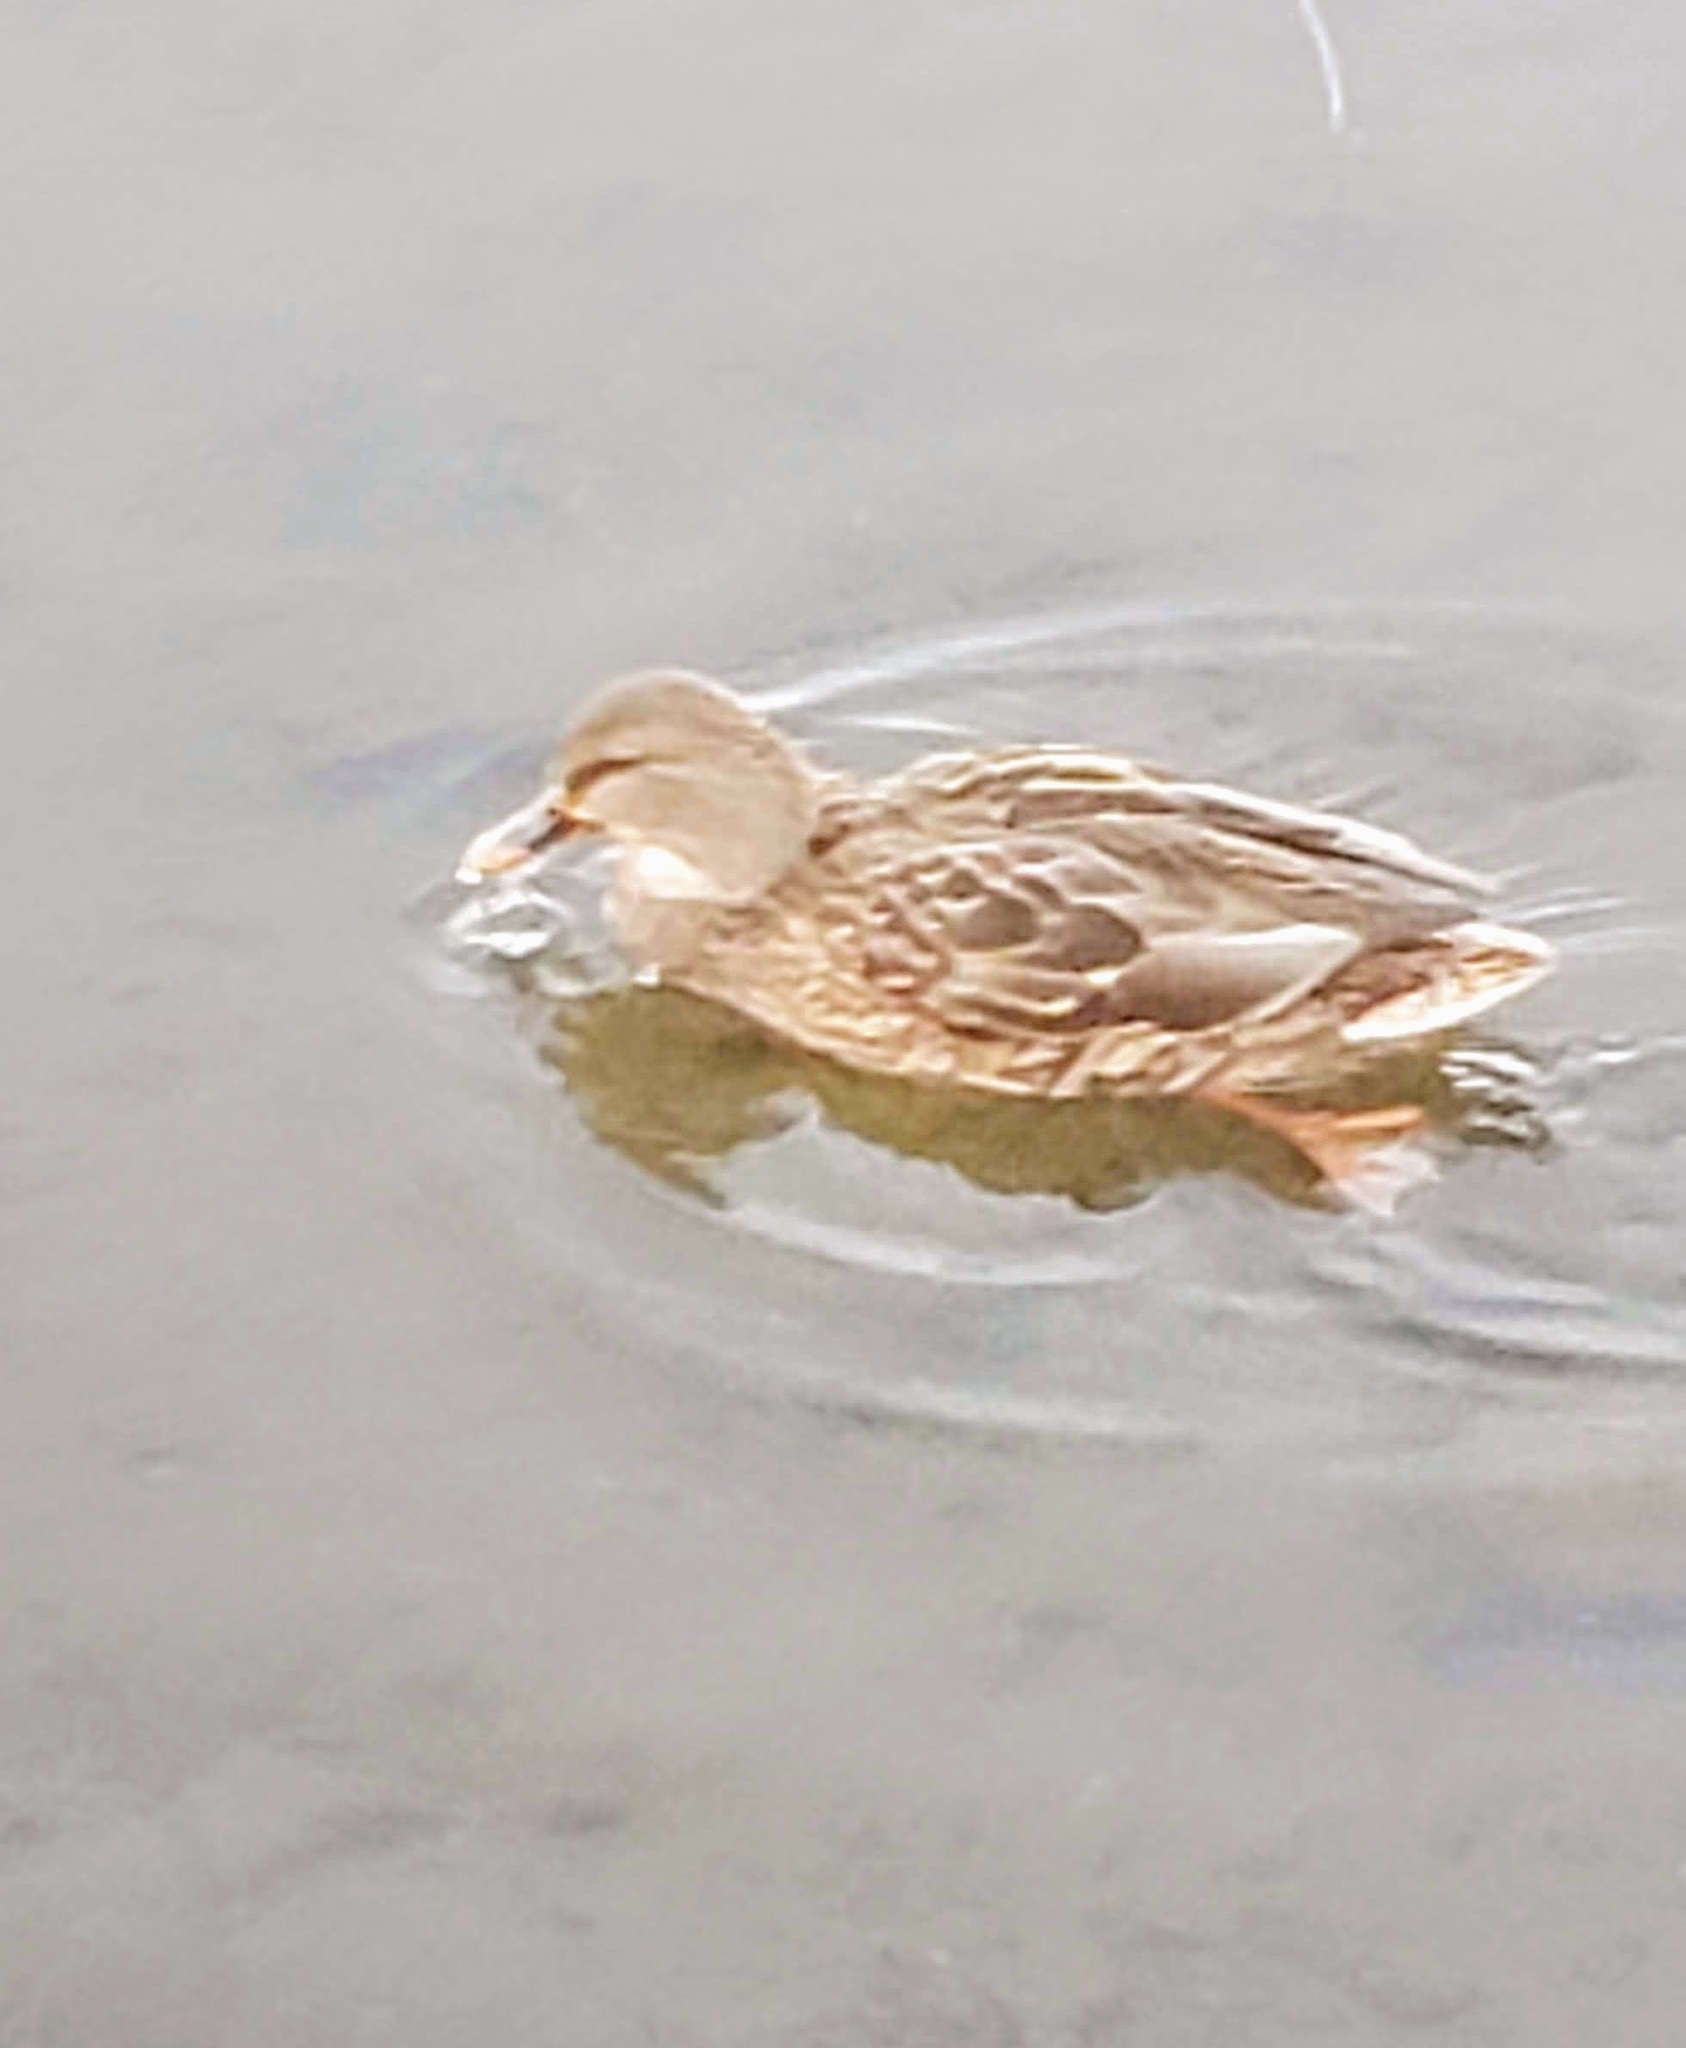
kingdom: Animalia
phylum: Chordata
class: Aves
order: Anseriformes
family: Anatidae
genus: Anas
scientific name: Anas platyrhynchos
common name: Mallard
